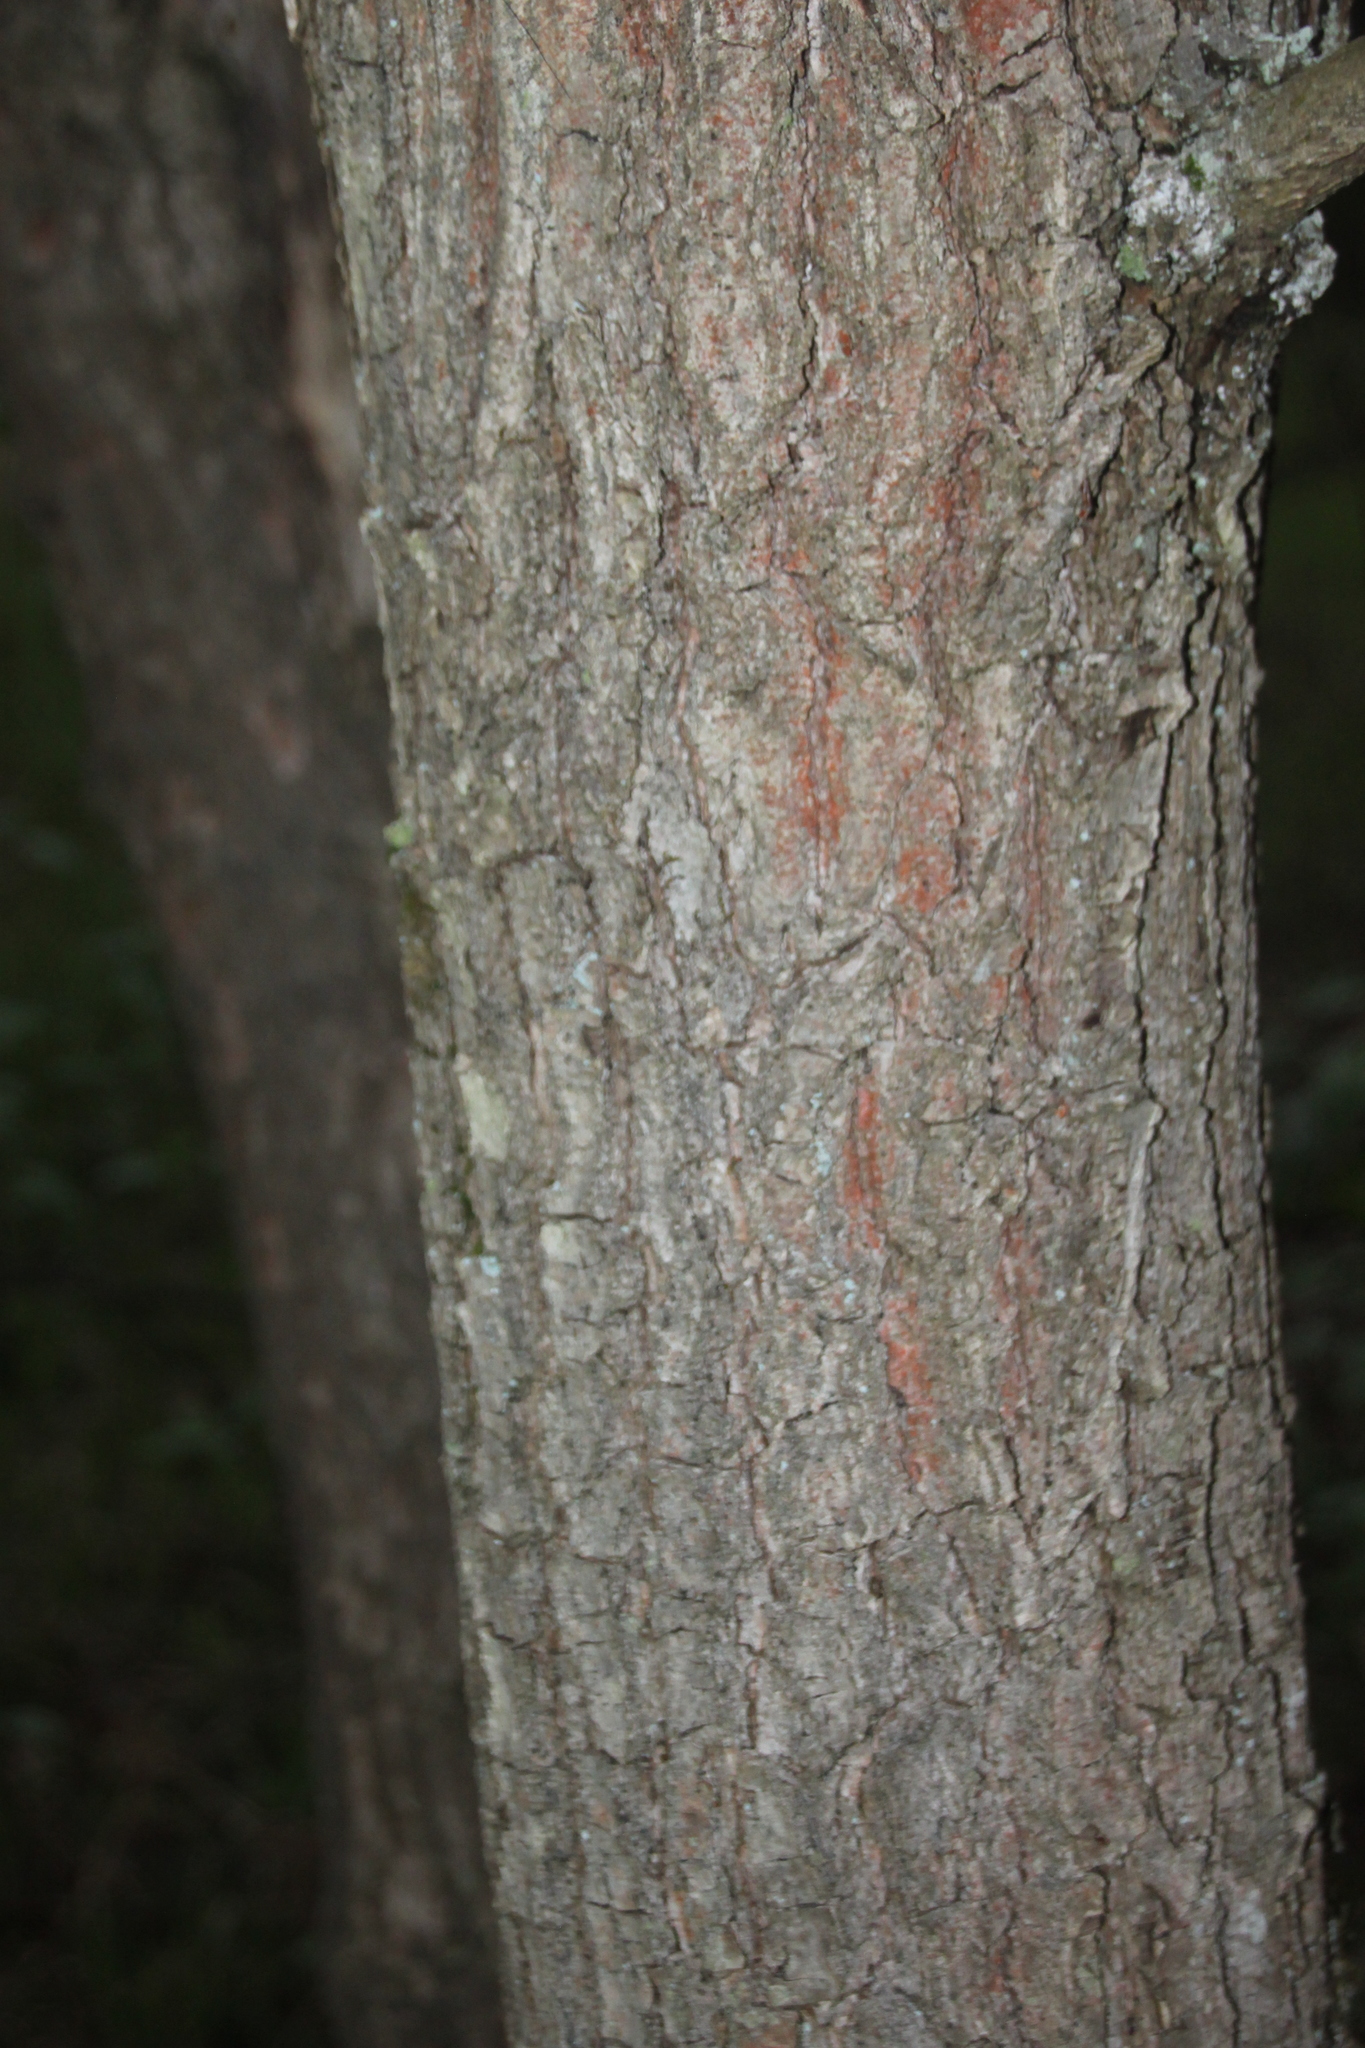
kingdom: Plantae
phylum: Tracheophyta
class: Magnoliopsida
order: Fagales
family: Fagaceae
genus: Quercus
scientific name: Quercus robur
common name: Pedunculate oak
